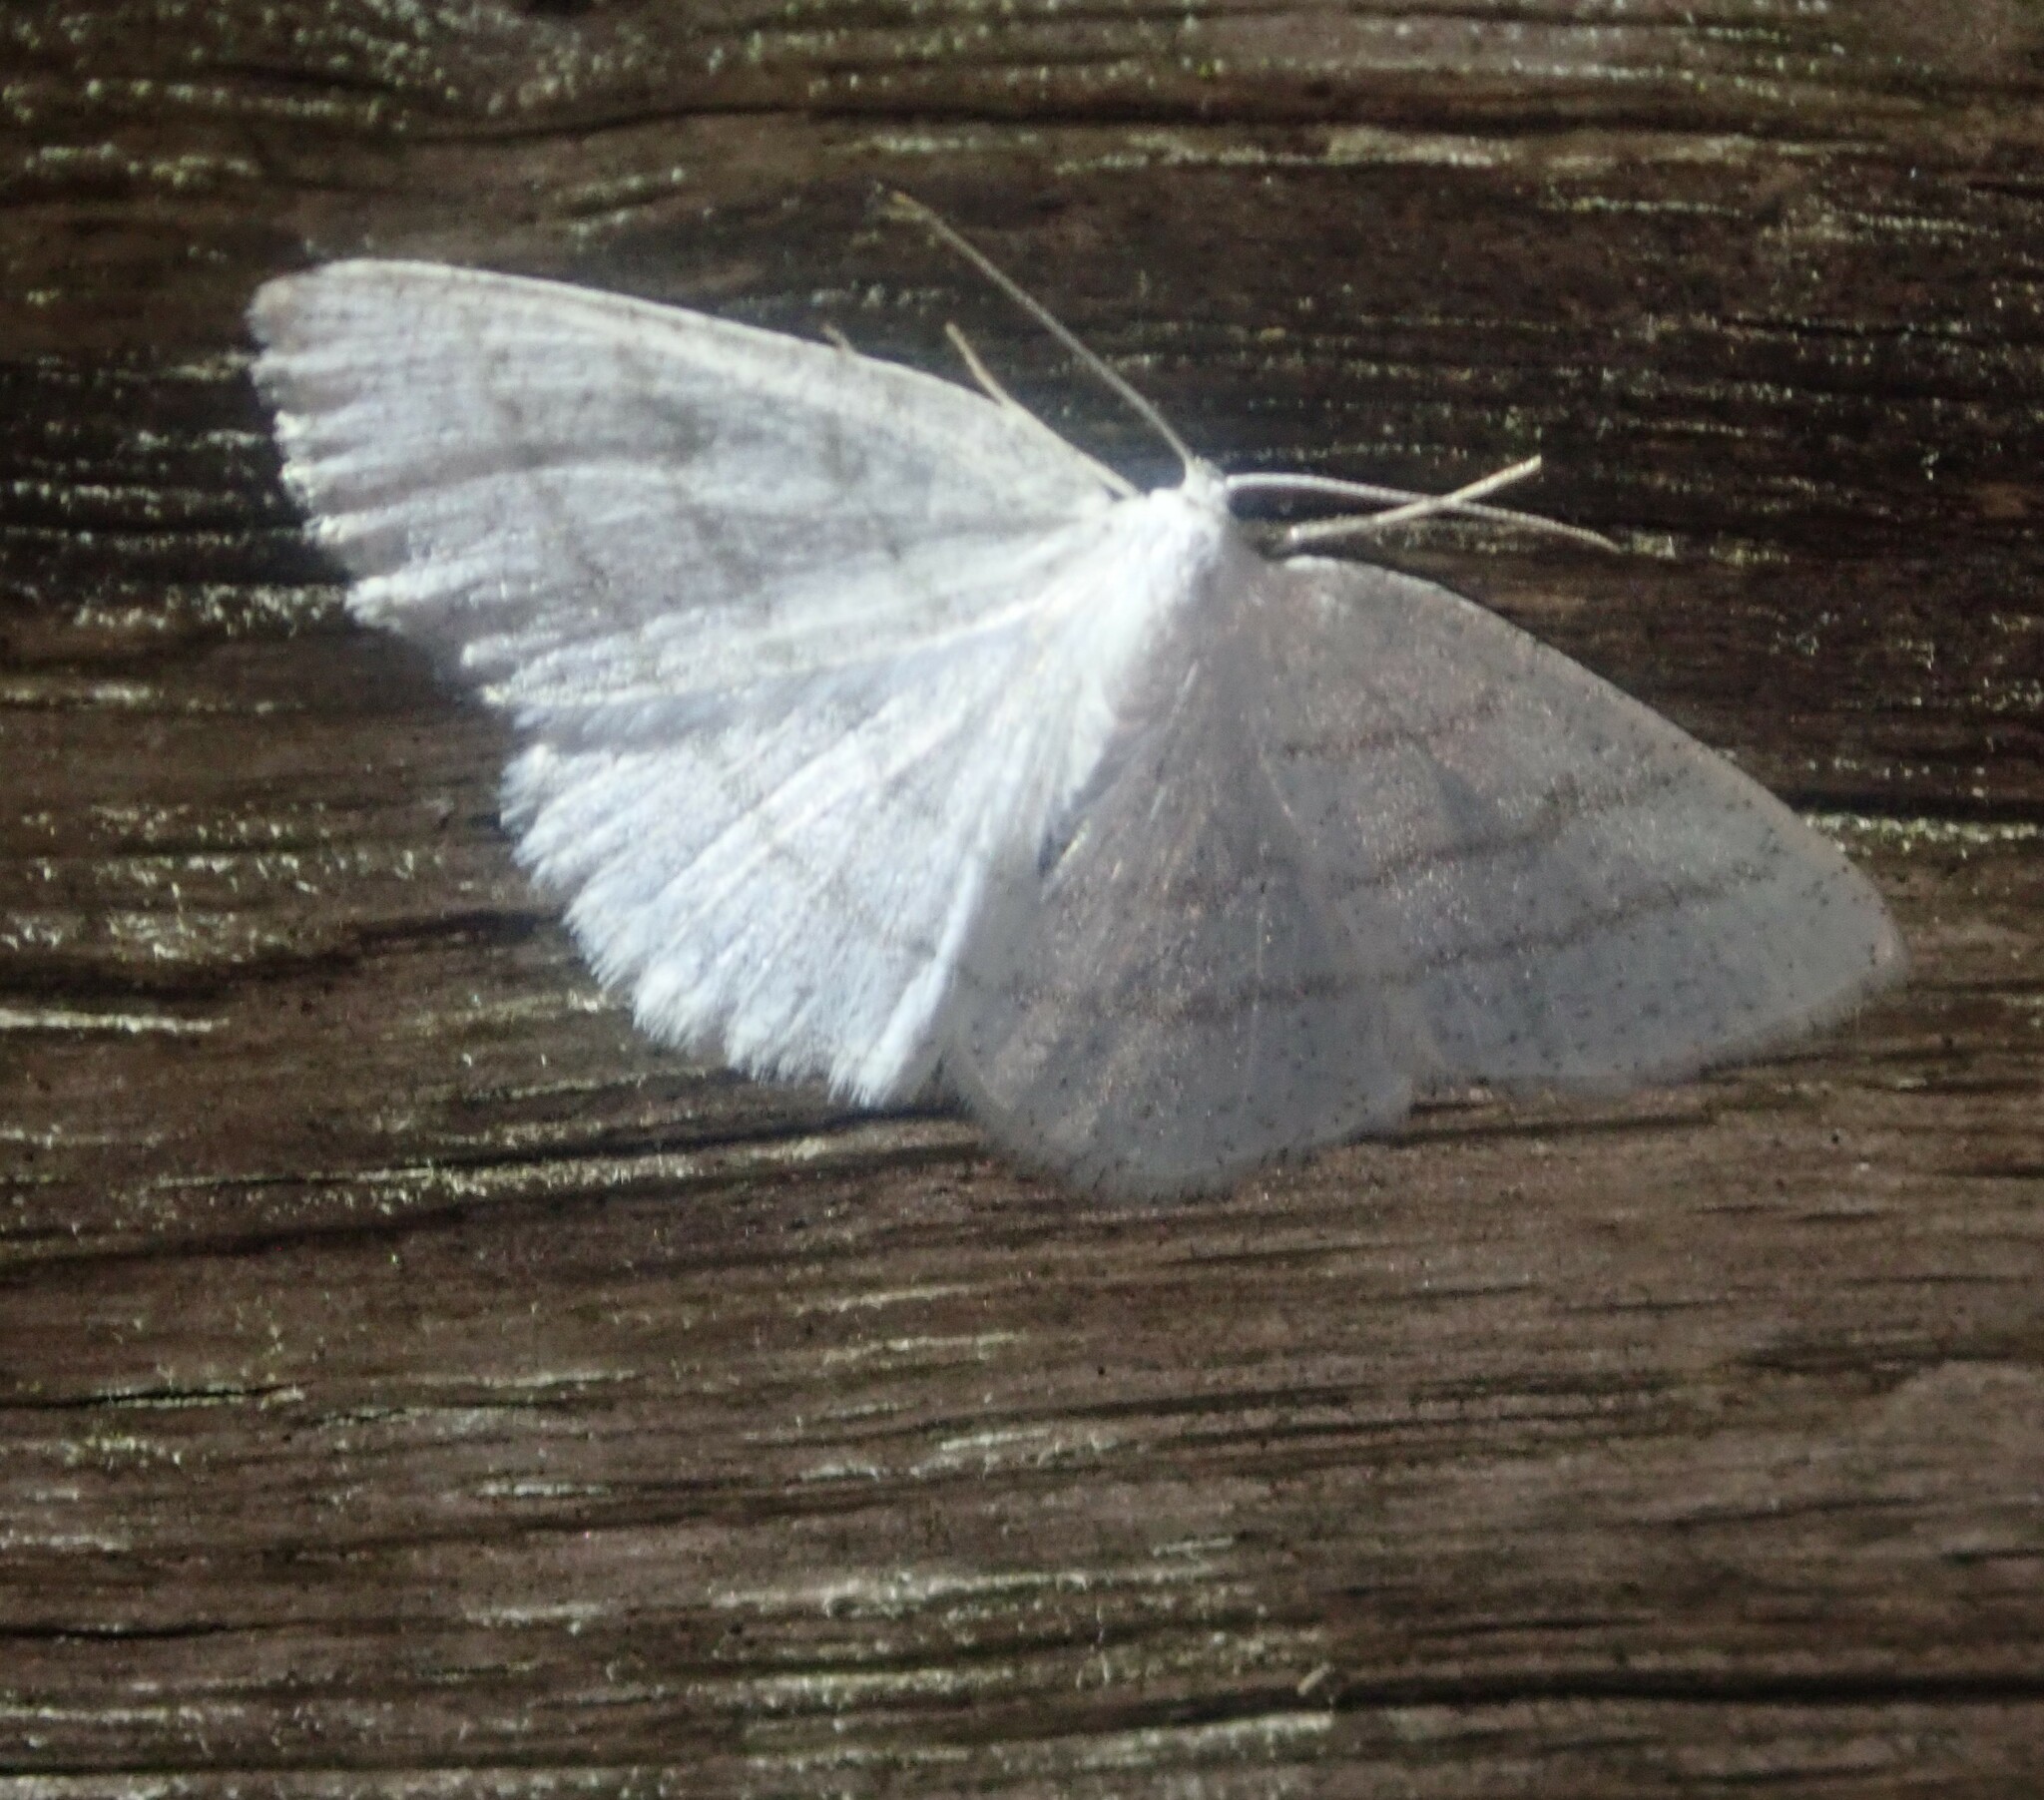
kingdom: Animalia
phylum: Arthropoda
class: Insecta
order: Lepidoptera
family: Geometridae
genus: Cabera
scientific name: Cabera pusaria
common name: Common white wave
